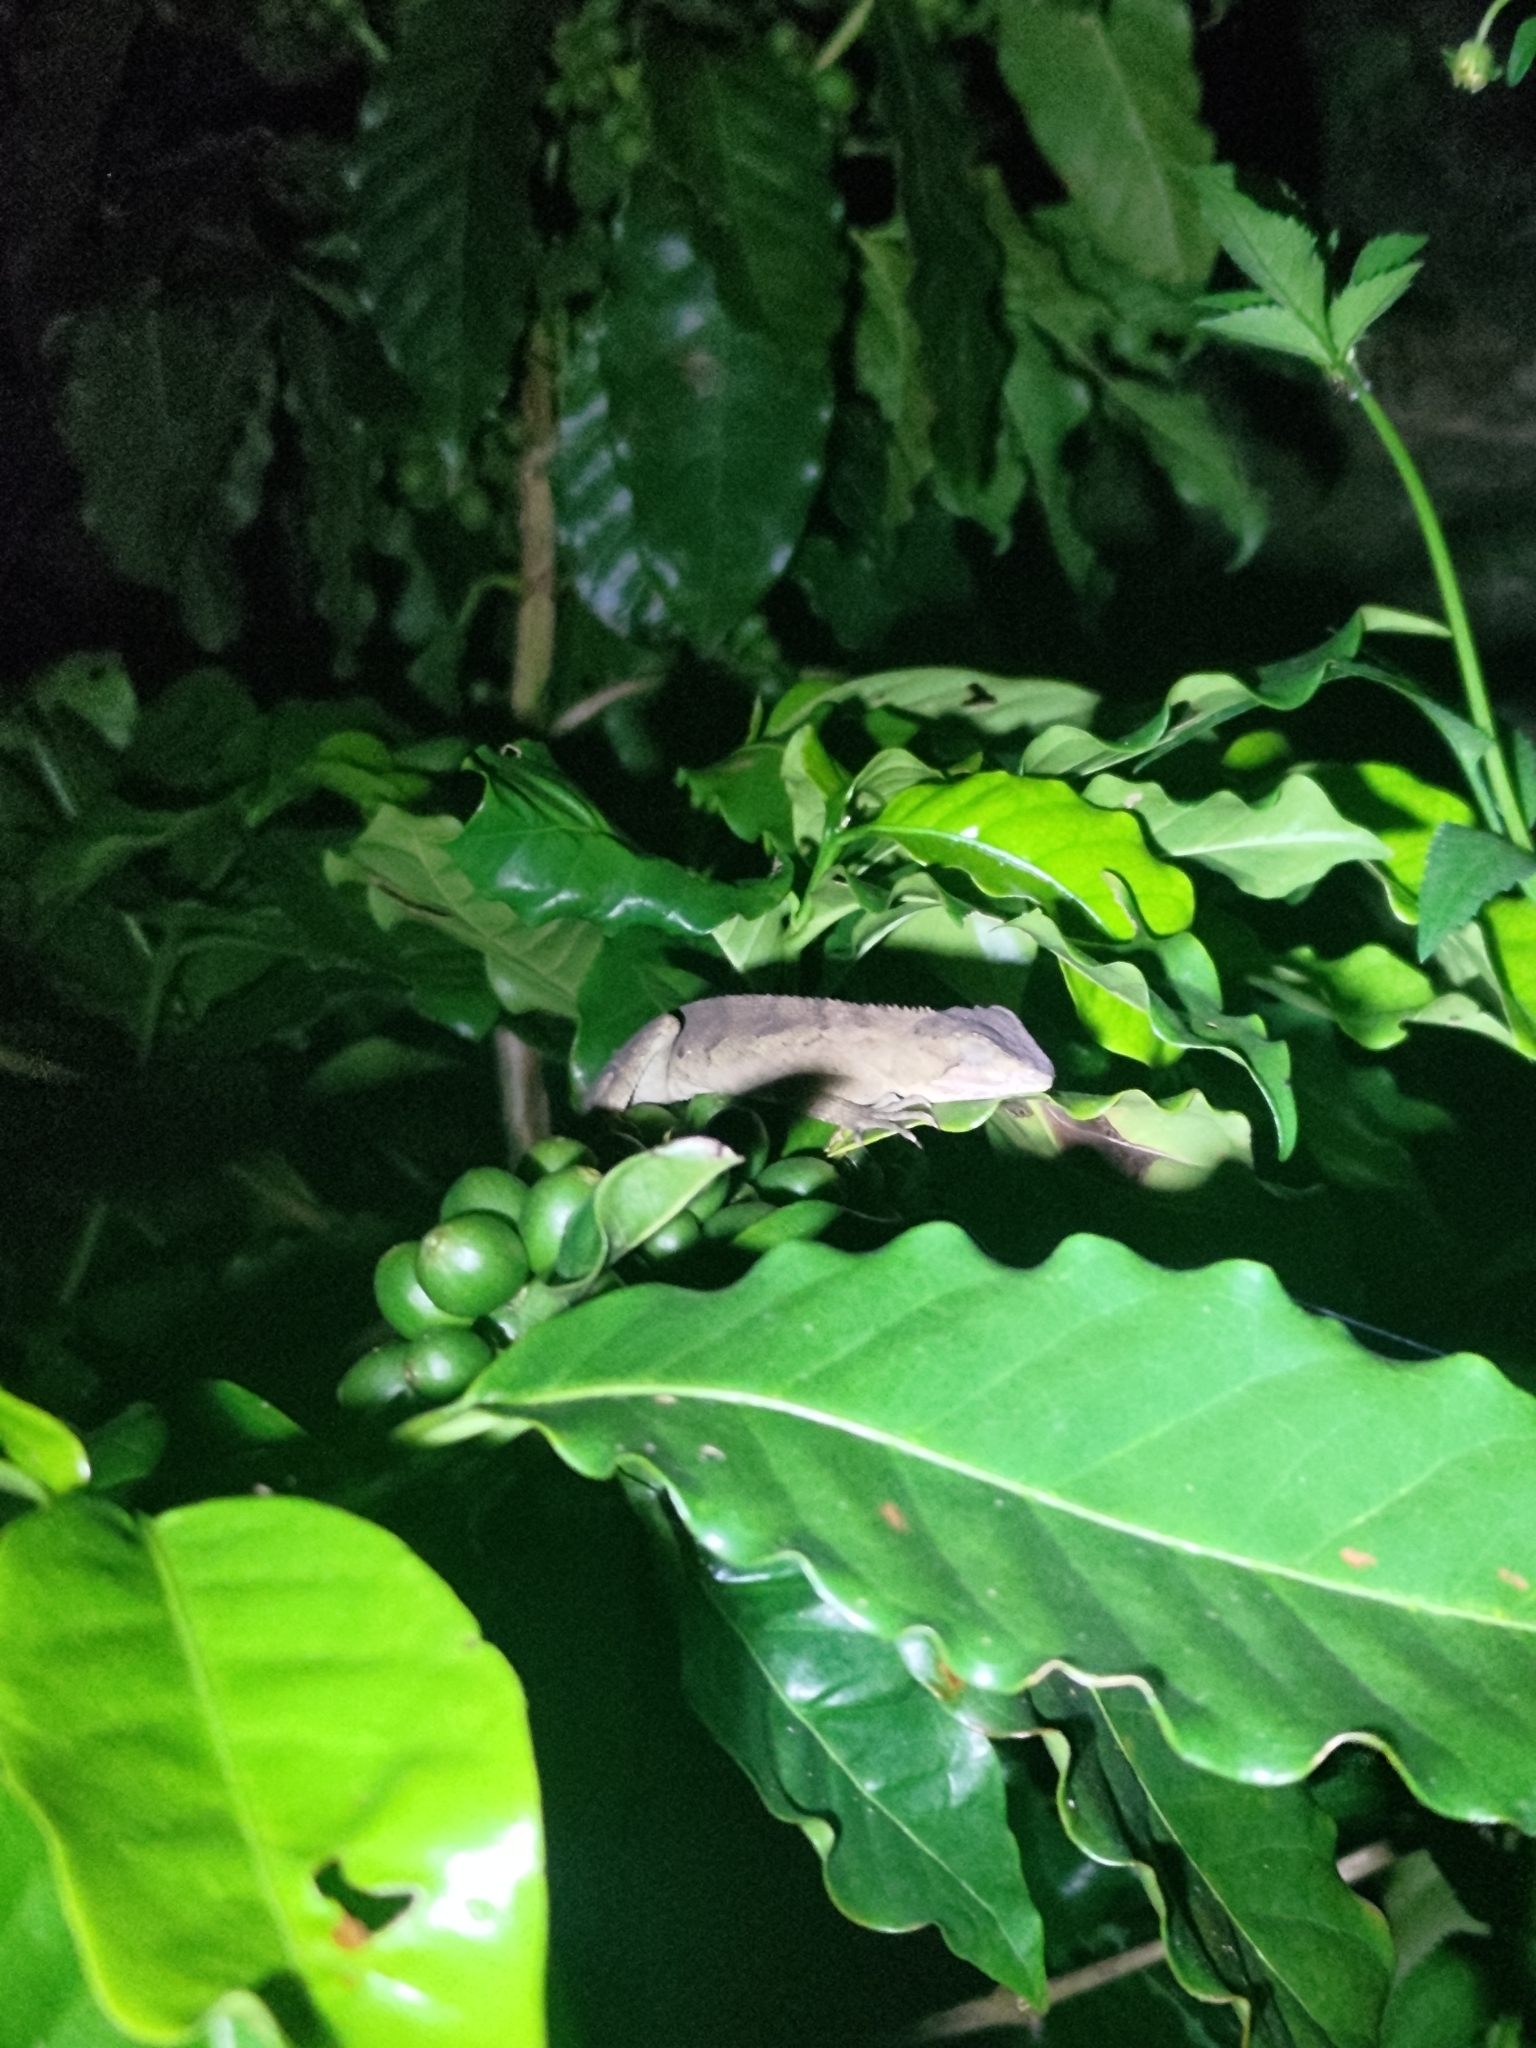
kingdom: Animalia
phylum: Chordata
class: Squamata
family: Agamidae
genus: Diploderma
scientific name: Diploderma swinhonis
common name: Taiwan japalure
